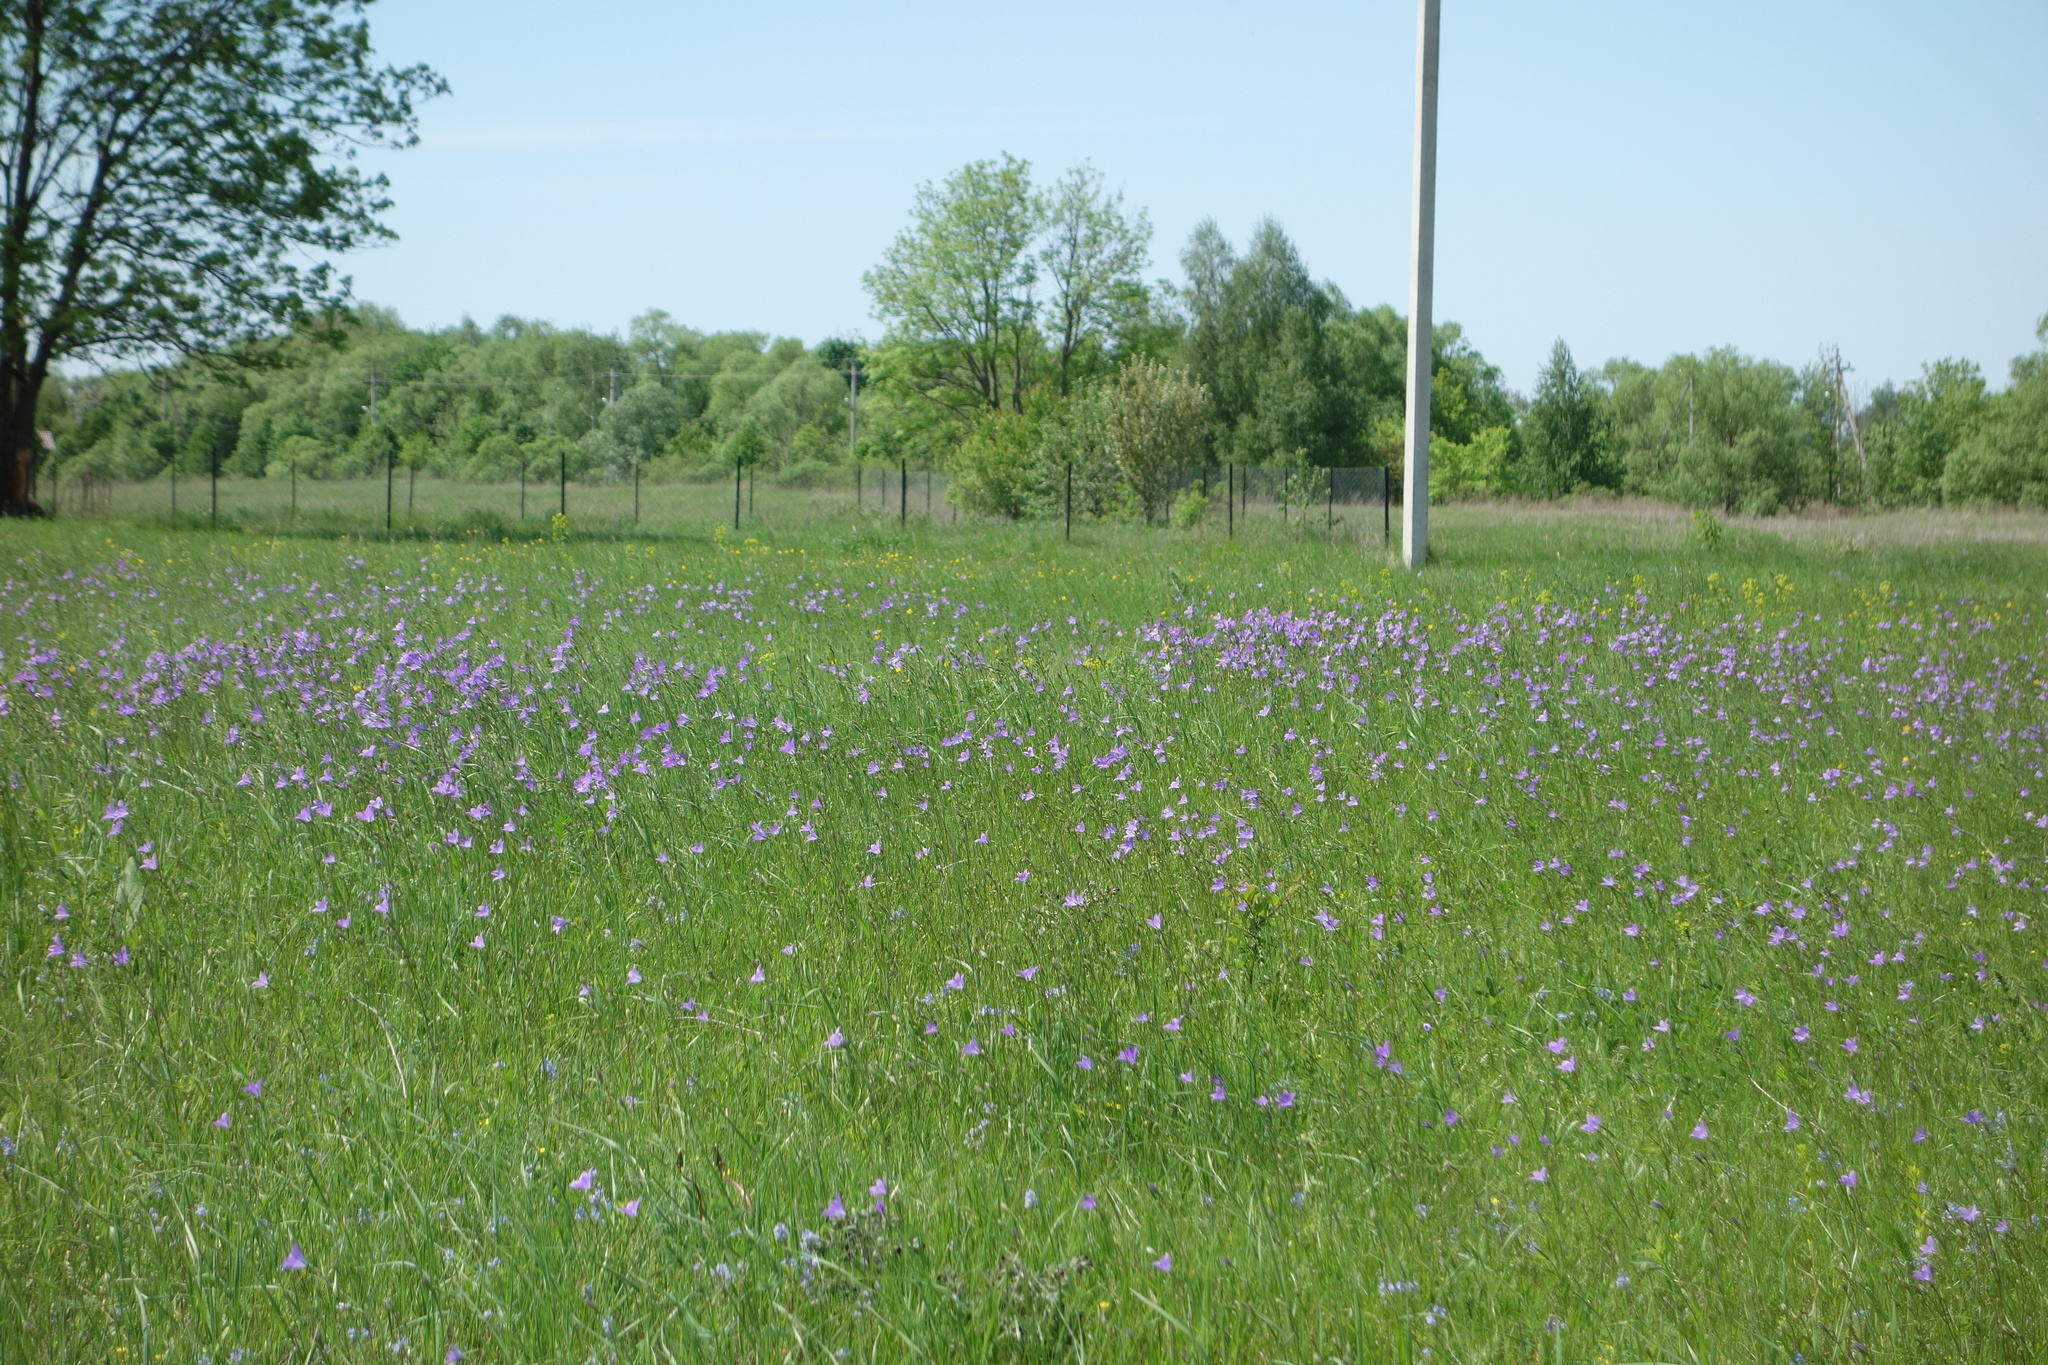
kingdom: Plantae
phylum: Tracheophyta
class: Magnoliopsida
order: Asterales
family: Campanulaceae
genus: Campanula
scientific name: Campanula stevenii
